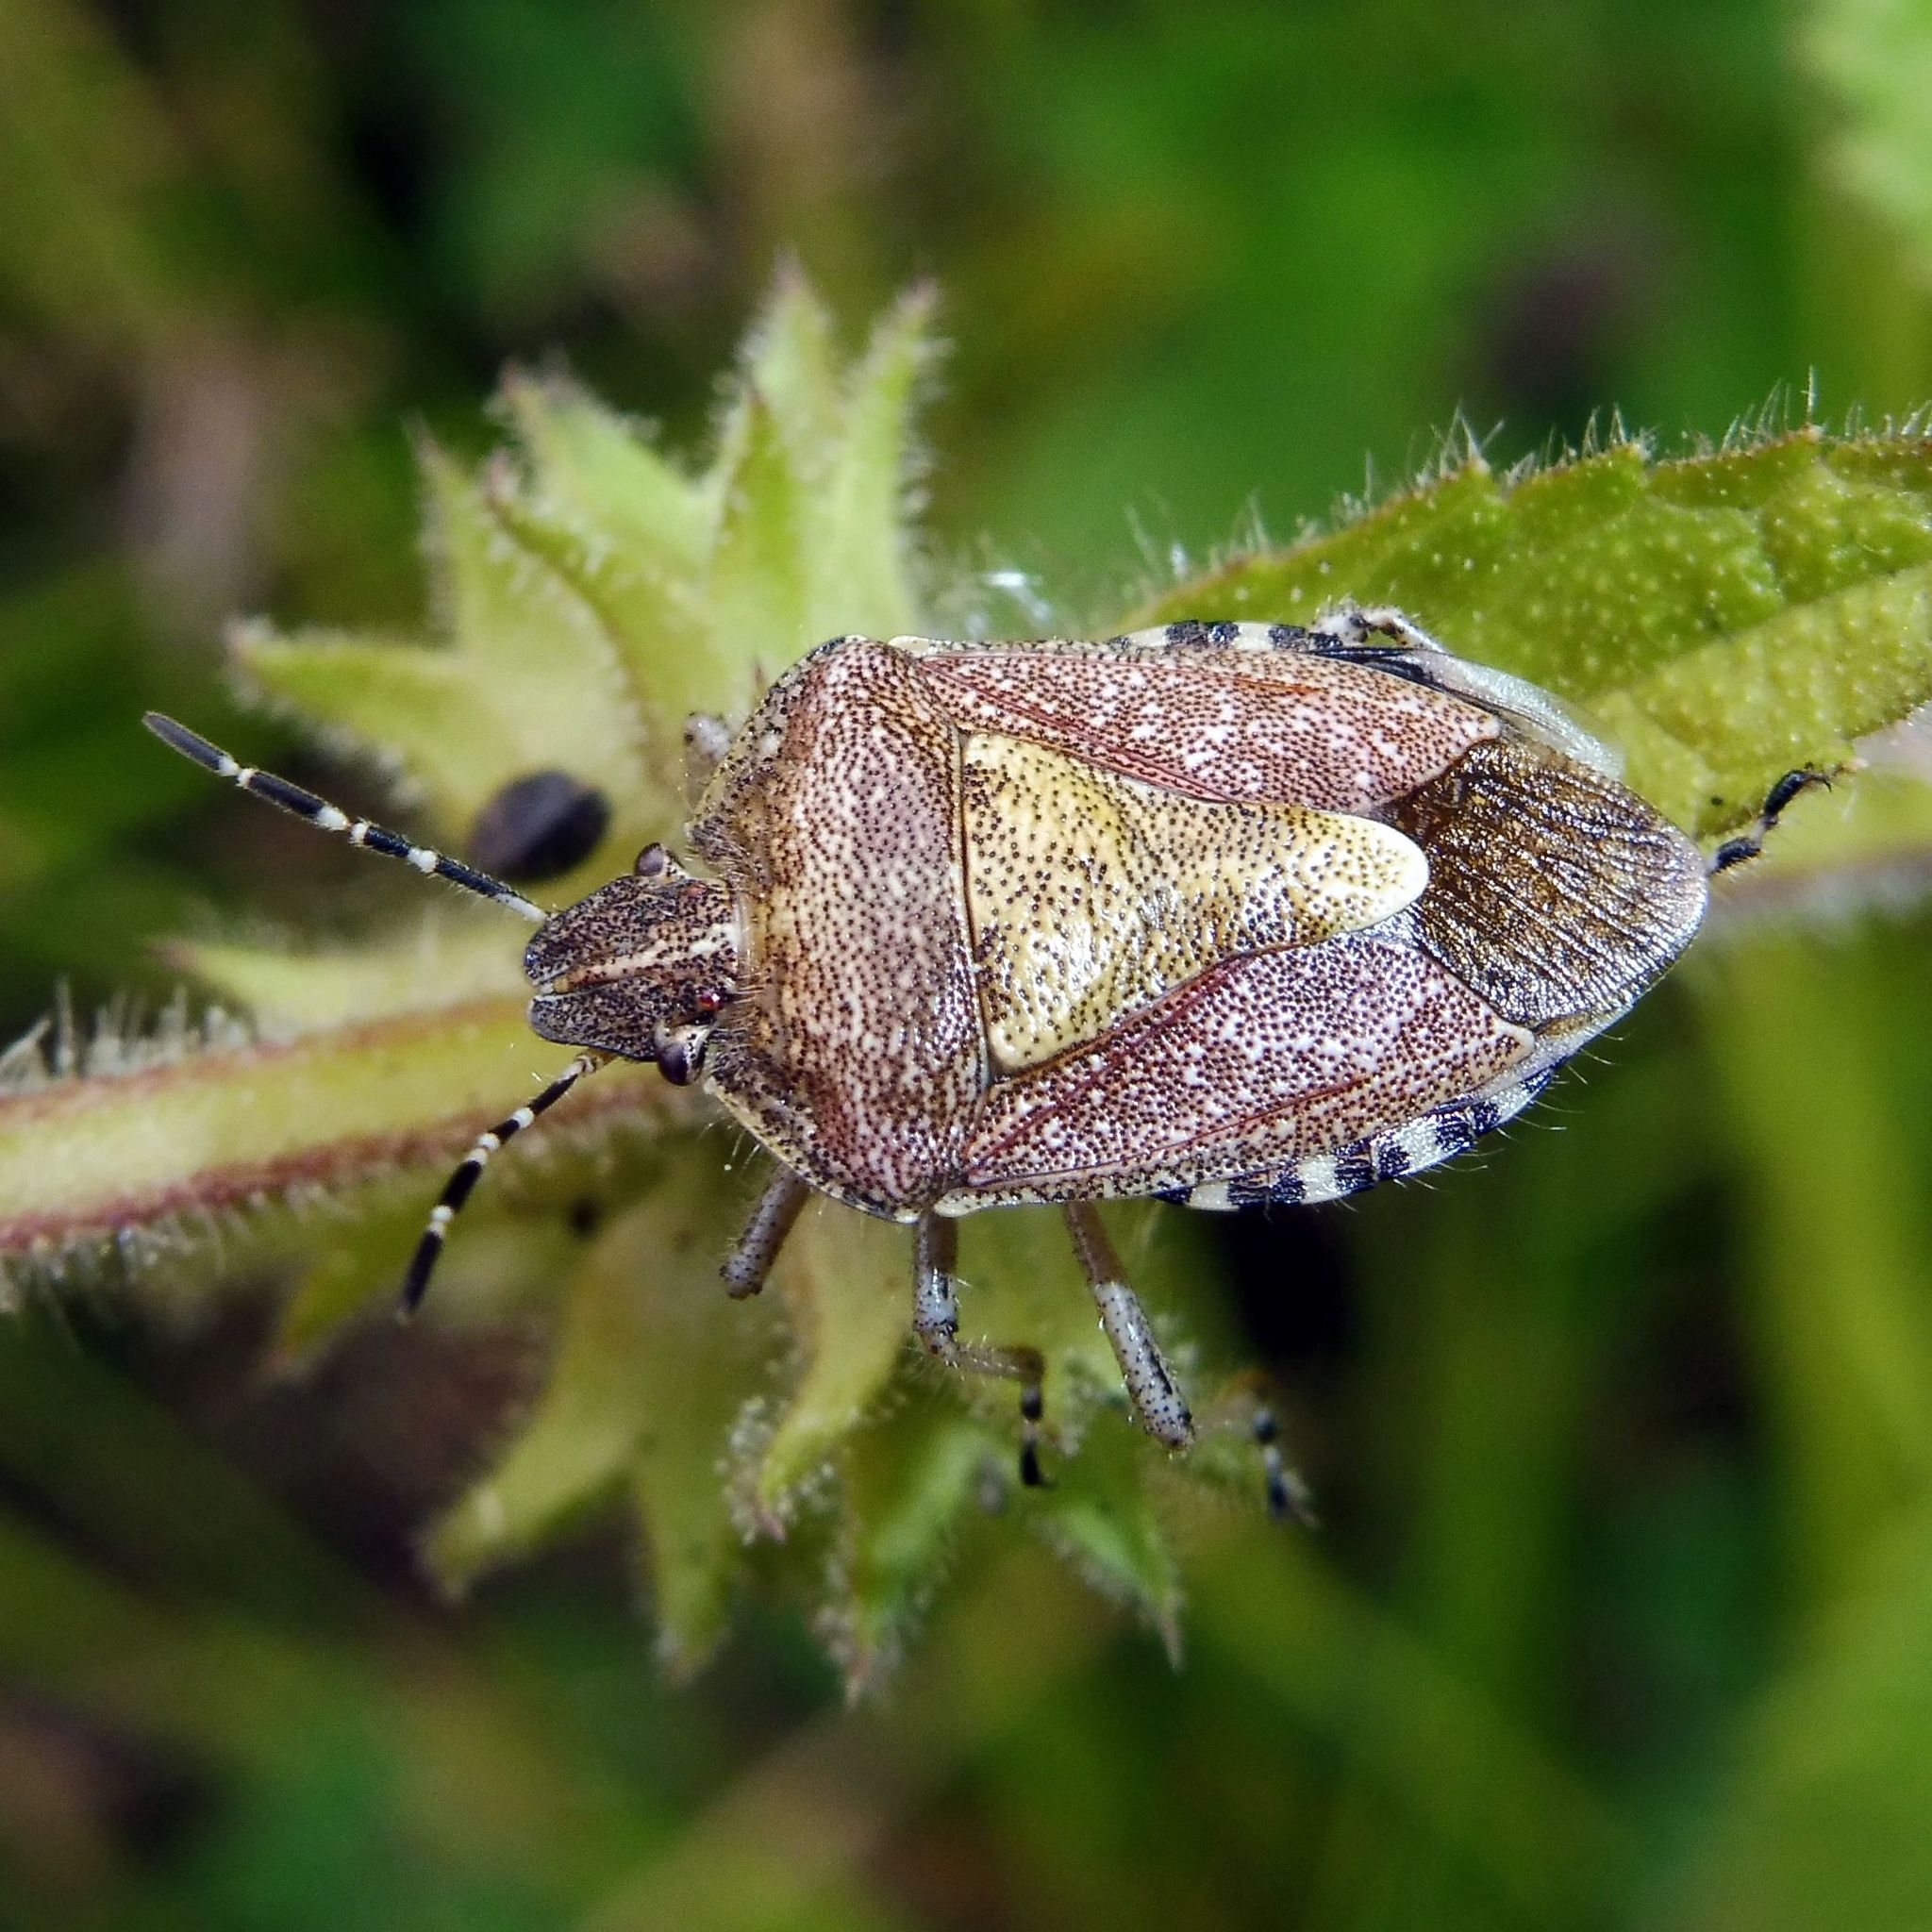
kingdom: Animalia
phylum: Arthropoda
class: Insecta
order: Hemiptera
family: Pentatomidae
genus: Dolycoris
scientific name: Dolycoris baccarum
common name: Sloe bug
